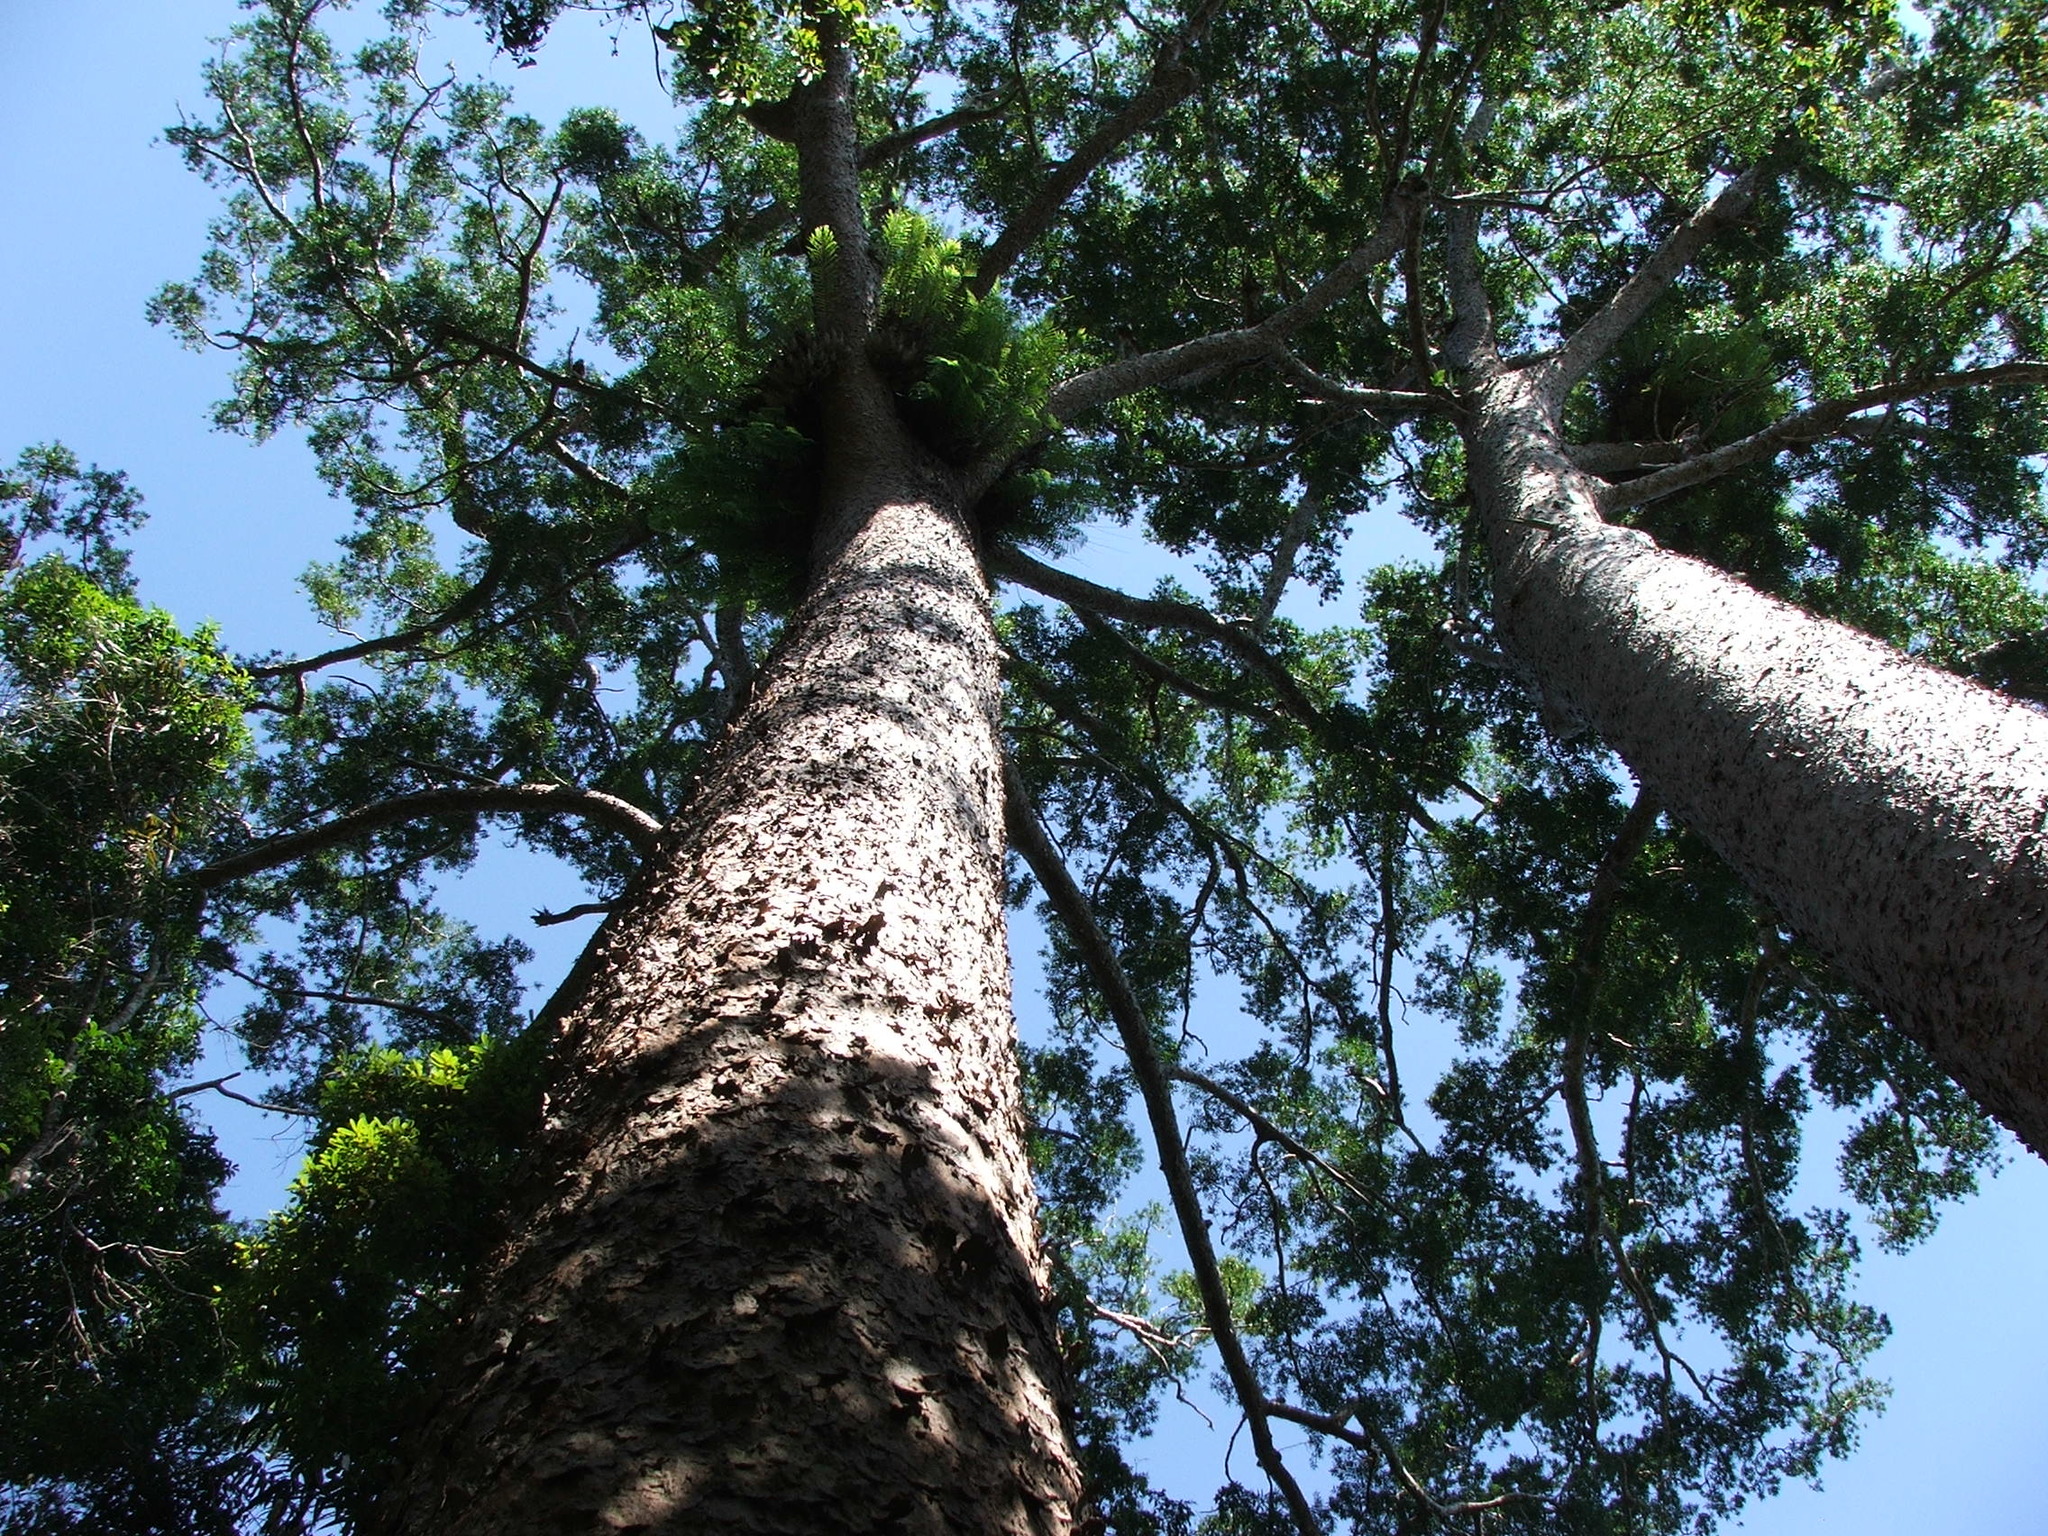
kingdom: Plantae
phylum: Tracheophyta
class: Pinopsida
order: Pinales
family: Araucariaceae
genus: Agathis
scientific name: Agathis microstachya
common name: Bull kauri
